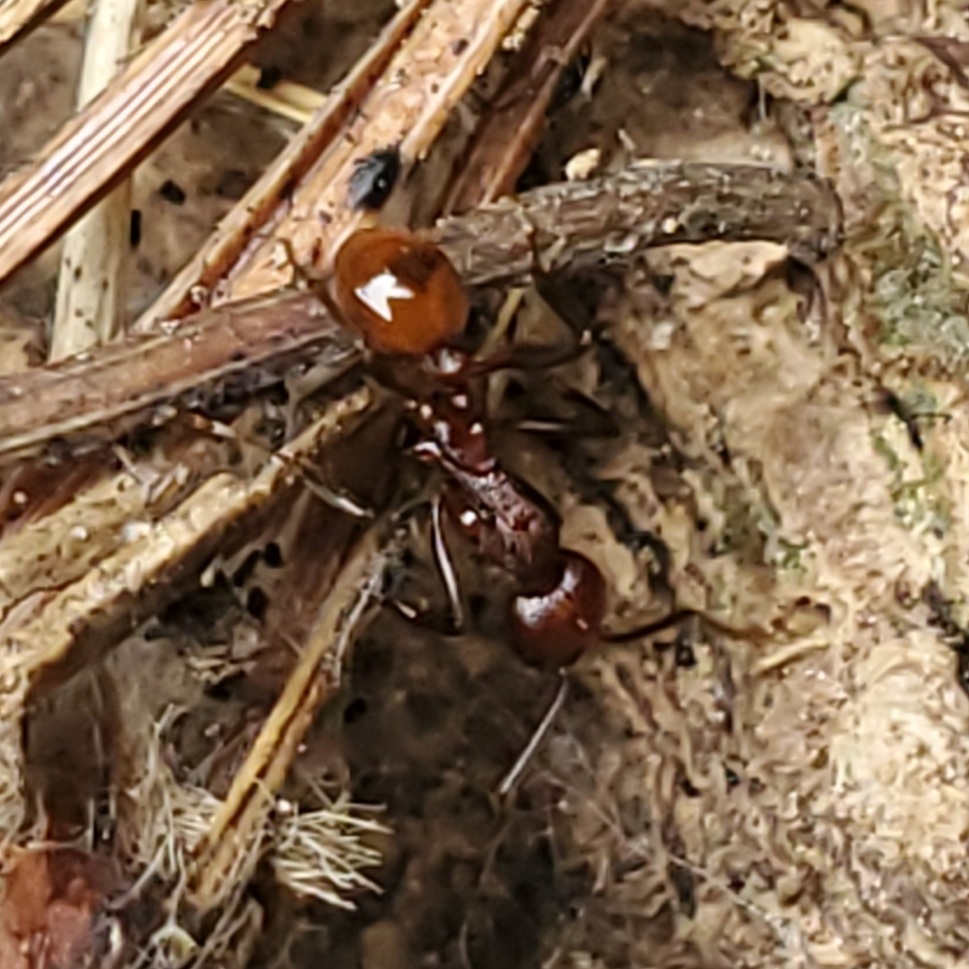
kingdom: Animalia
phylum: Arthropoda
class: Insecta
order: Hymenoptera
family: Formicidae
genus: Aphaenogaster
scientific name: Aphaenogaster tennesseensis
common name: Tennessee thread-waisted ant
